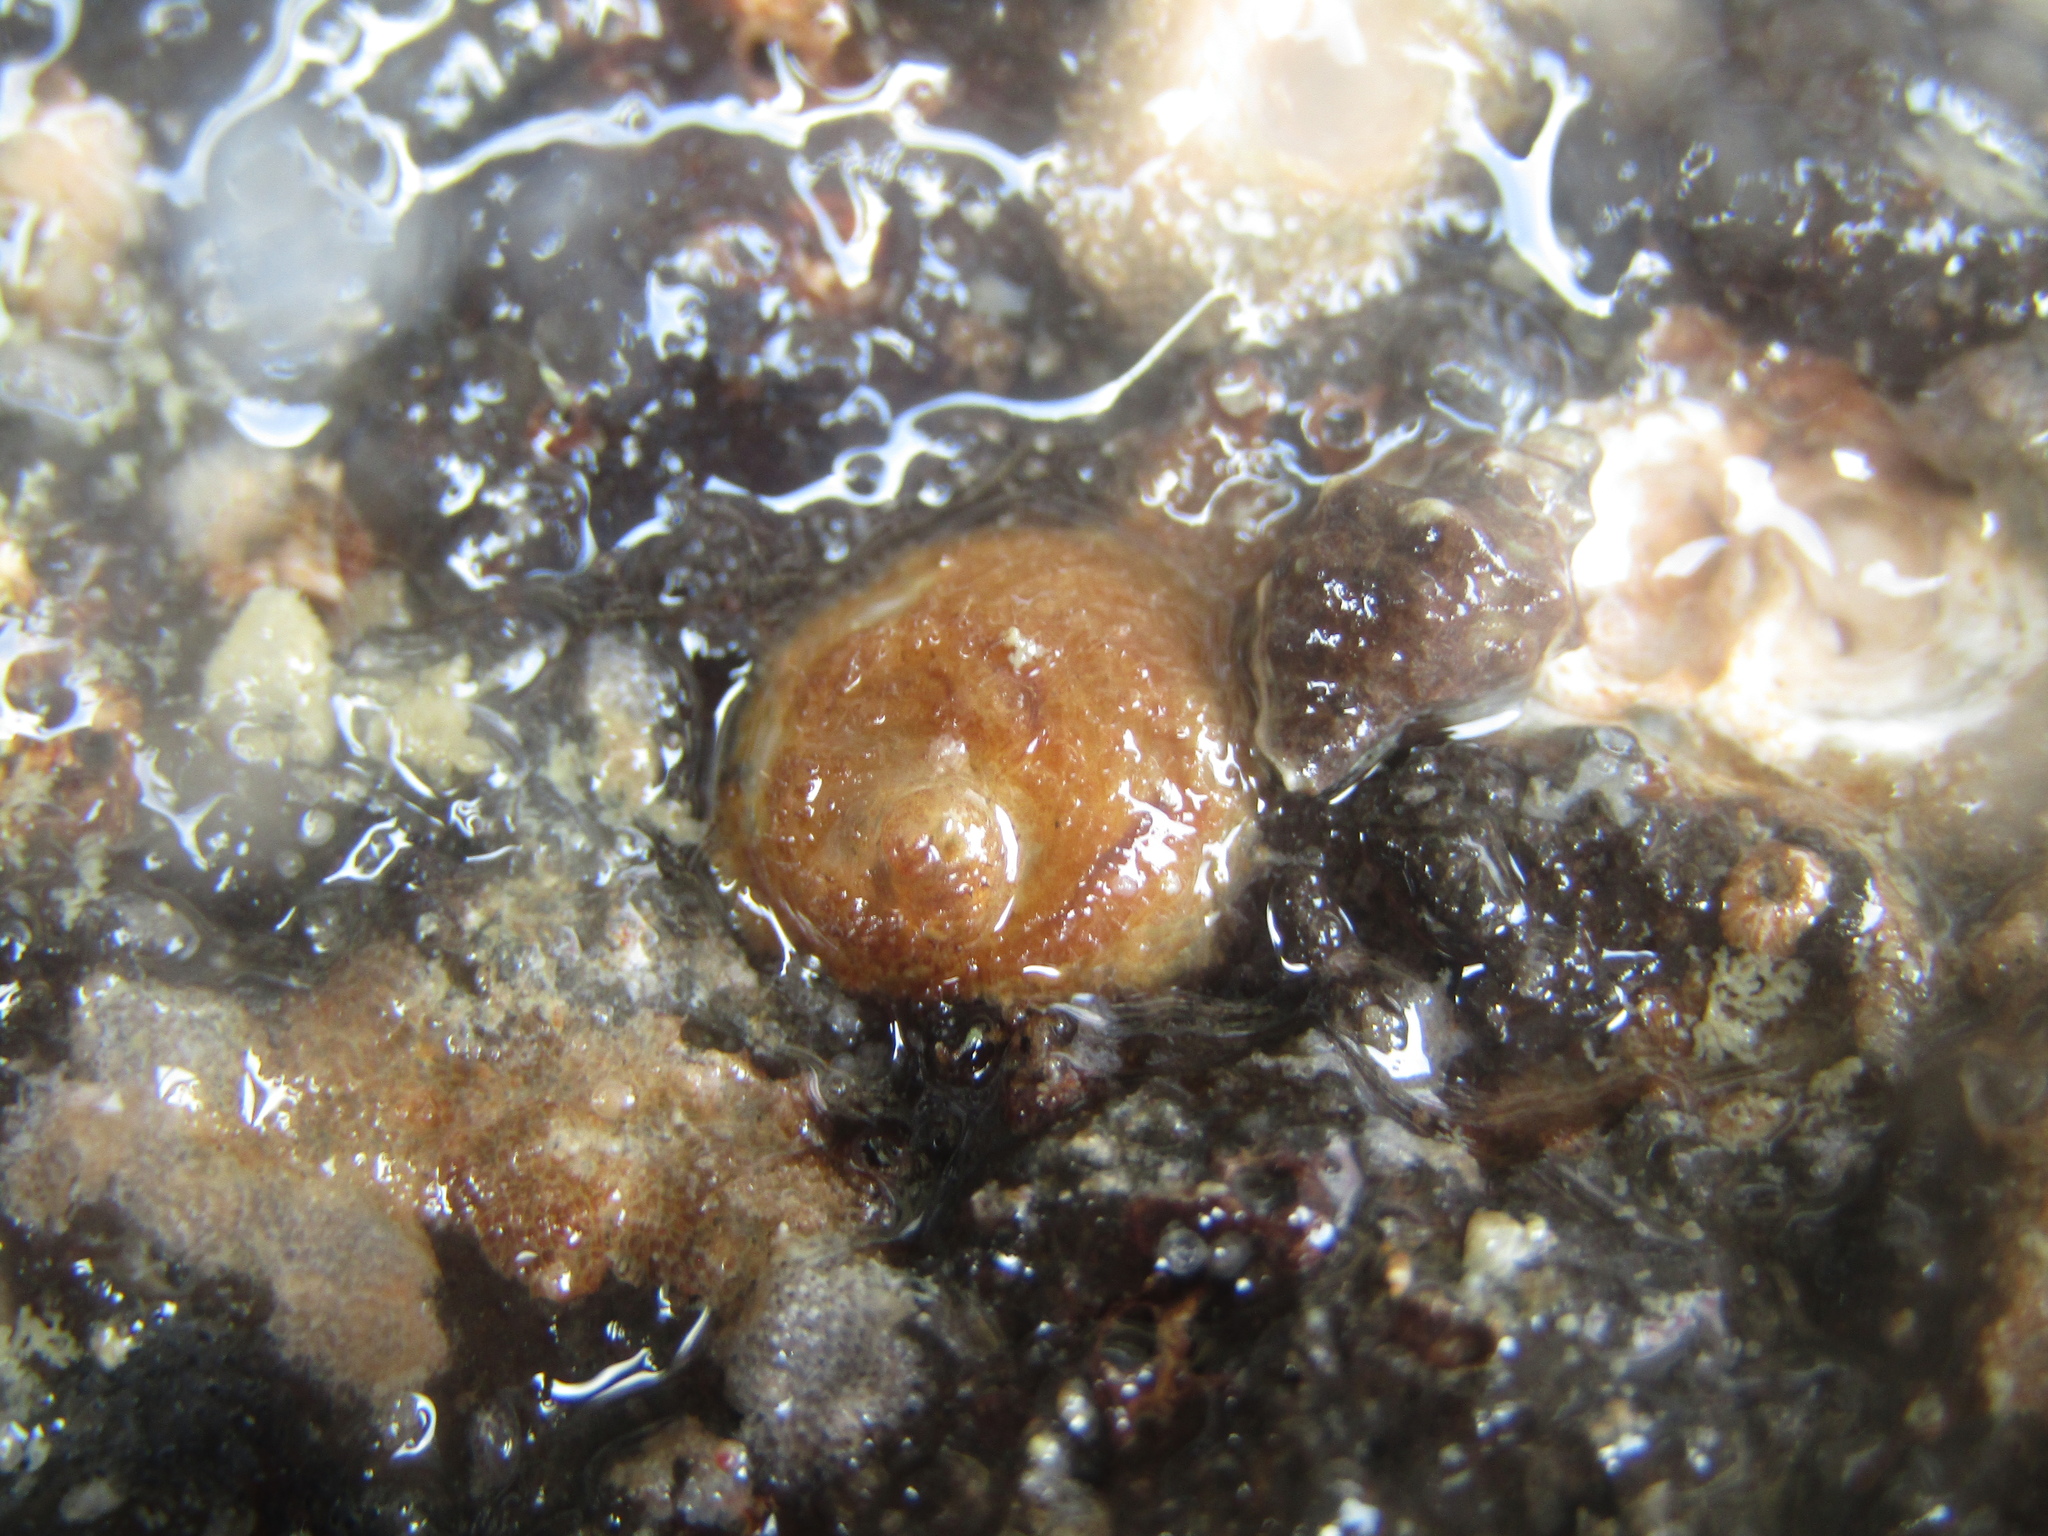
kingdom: Animalia
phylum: Mollusca
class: Gastropoda
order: Littorinimorpha
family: Calyptraeidae
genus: Sigapatella
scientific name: Sigapatella novaezelandiae
